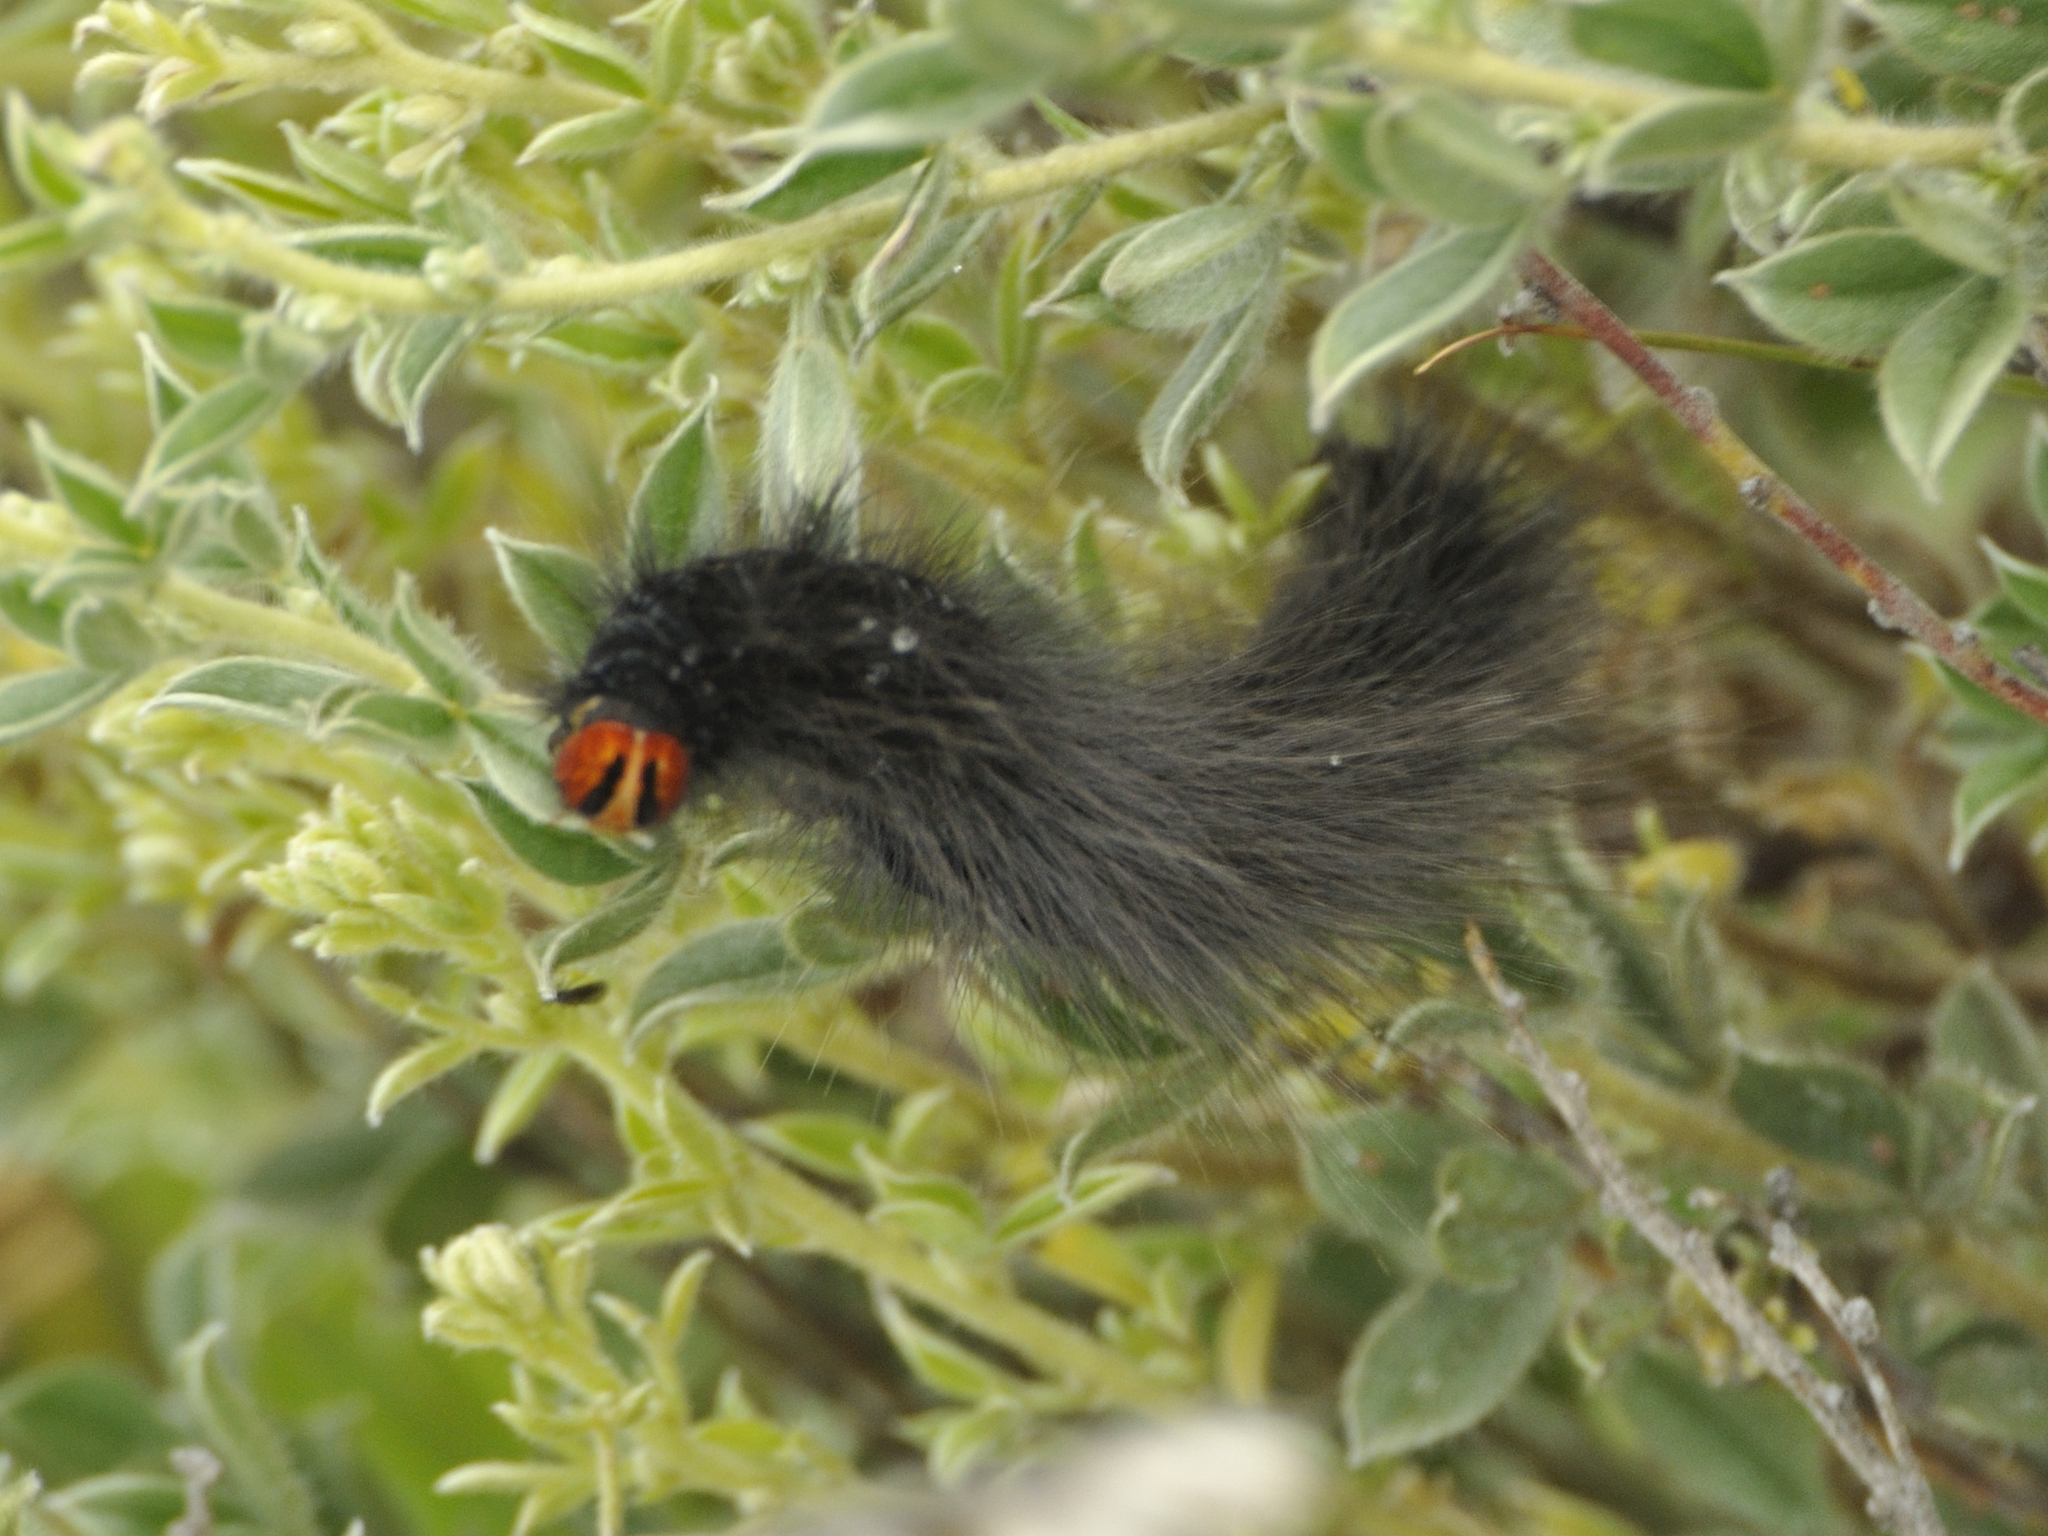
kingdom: Animalia
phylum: Arthropoda
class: Insecta
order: Lepidoptera
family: Lasiocampidae
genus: Mesocelis
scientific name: Mesocelis monticola
